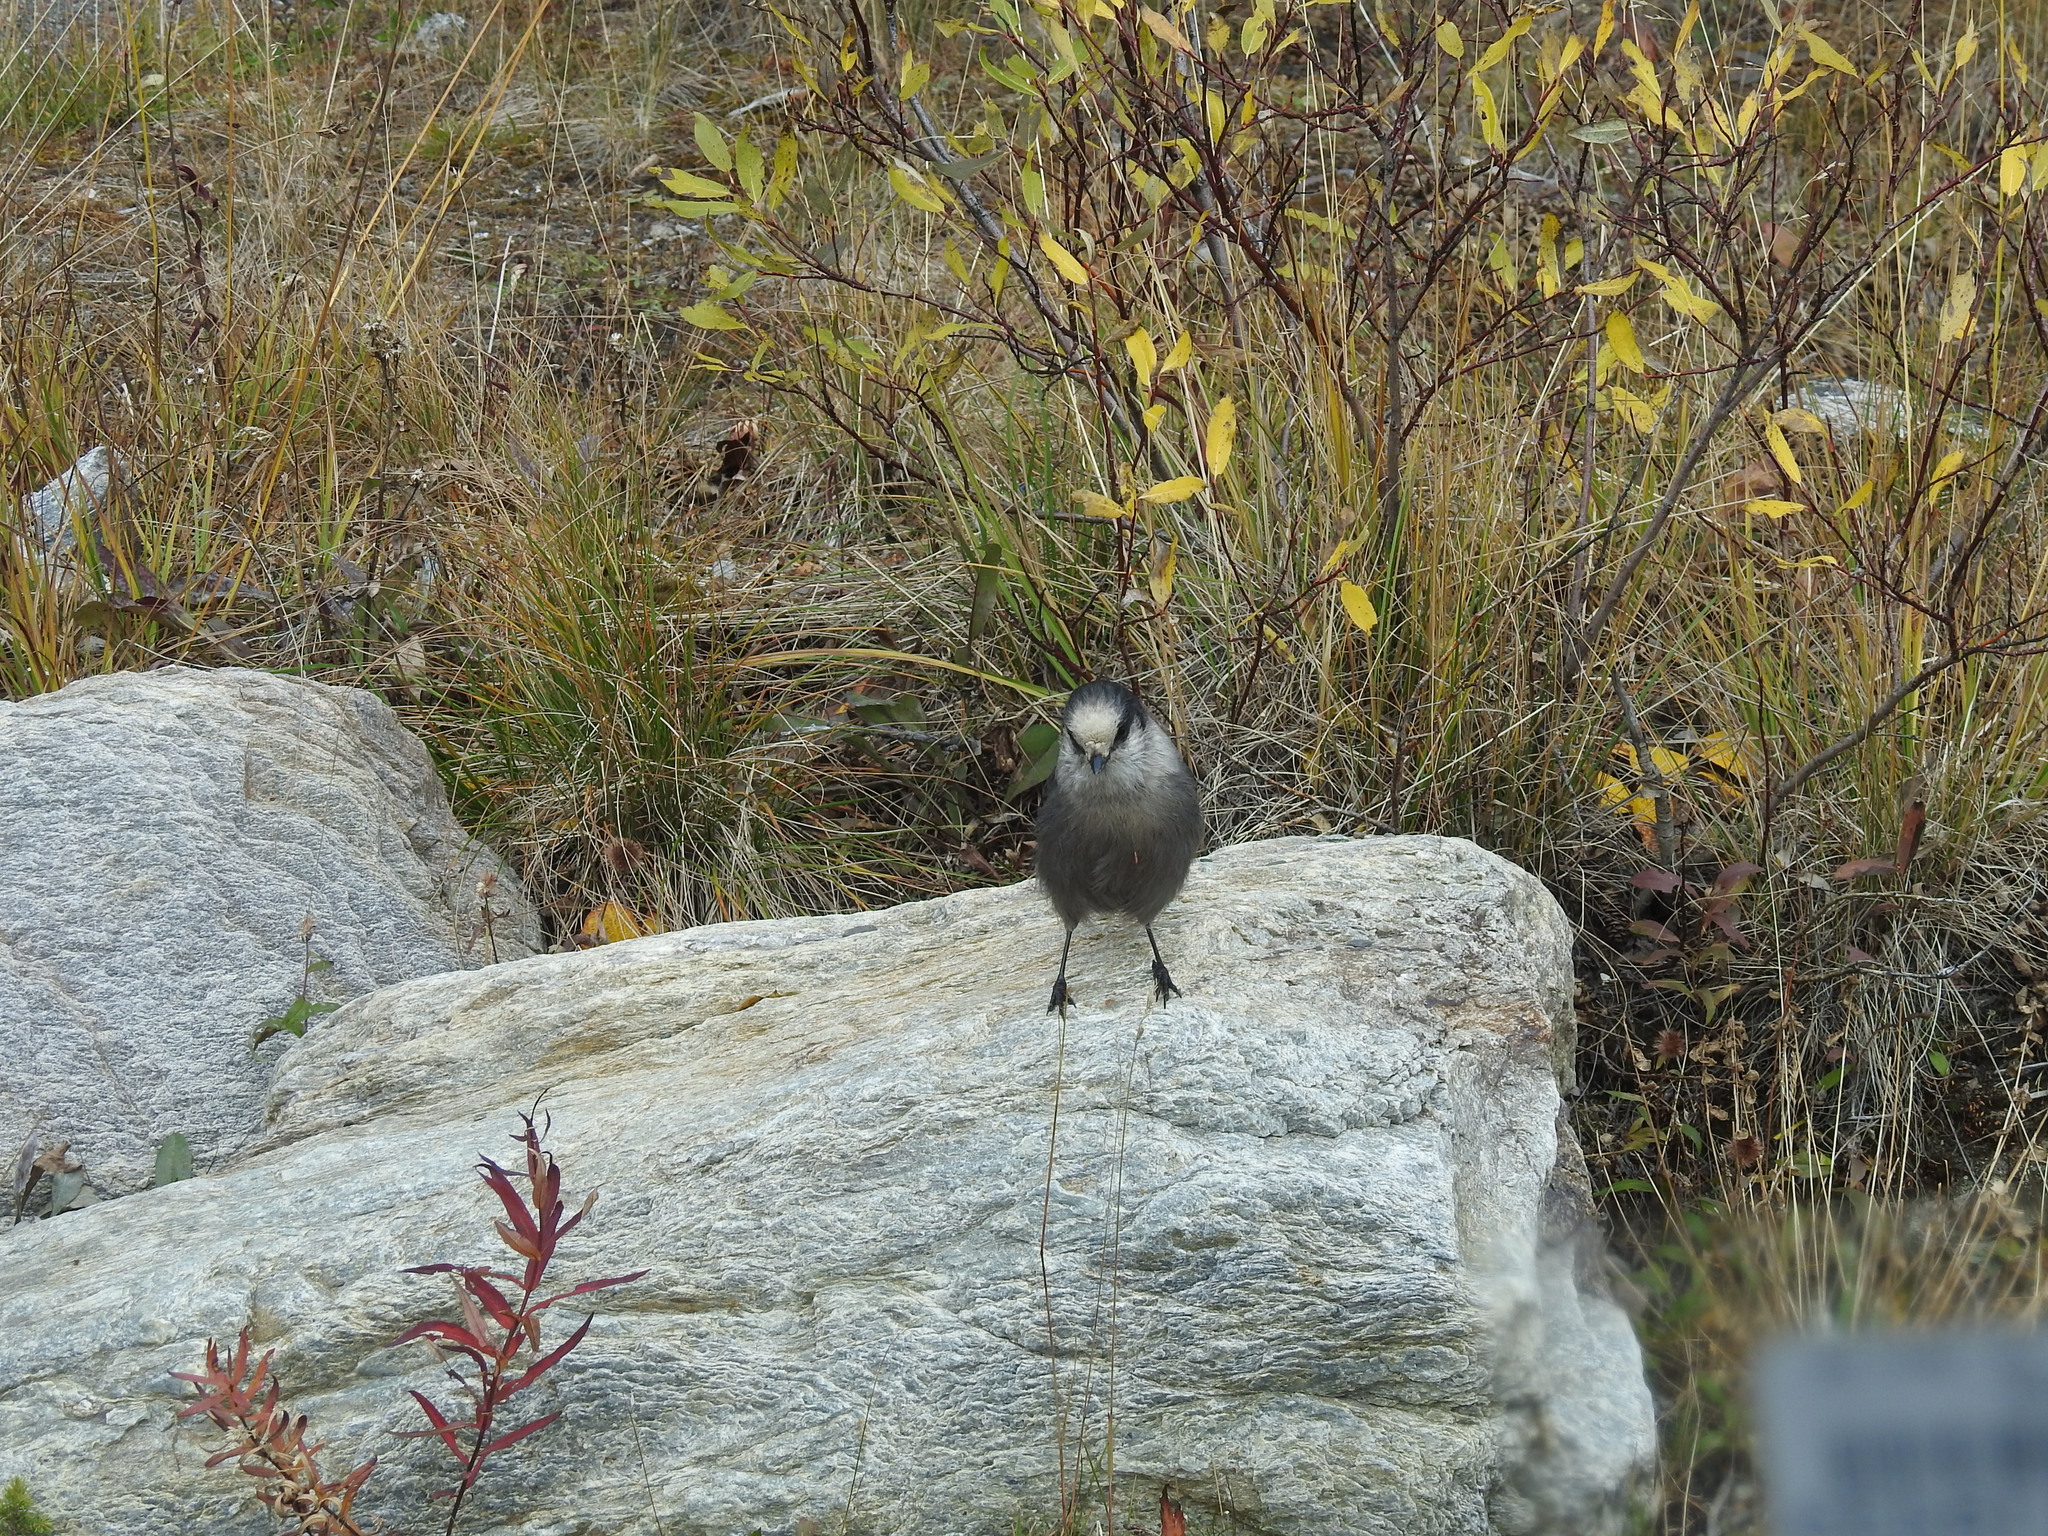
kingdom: Animalia
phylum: Chordata
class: Aves
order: Passeriformes
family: Corvidae
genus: Perisoreus
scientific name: Perisoreus canadensis
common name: Gray jay
